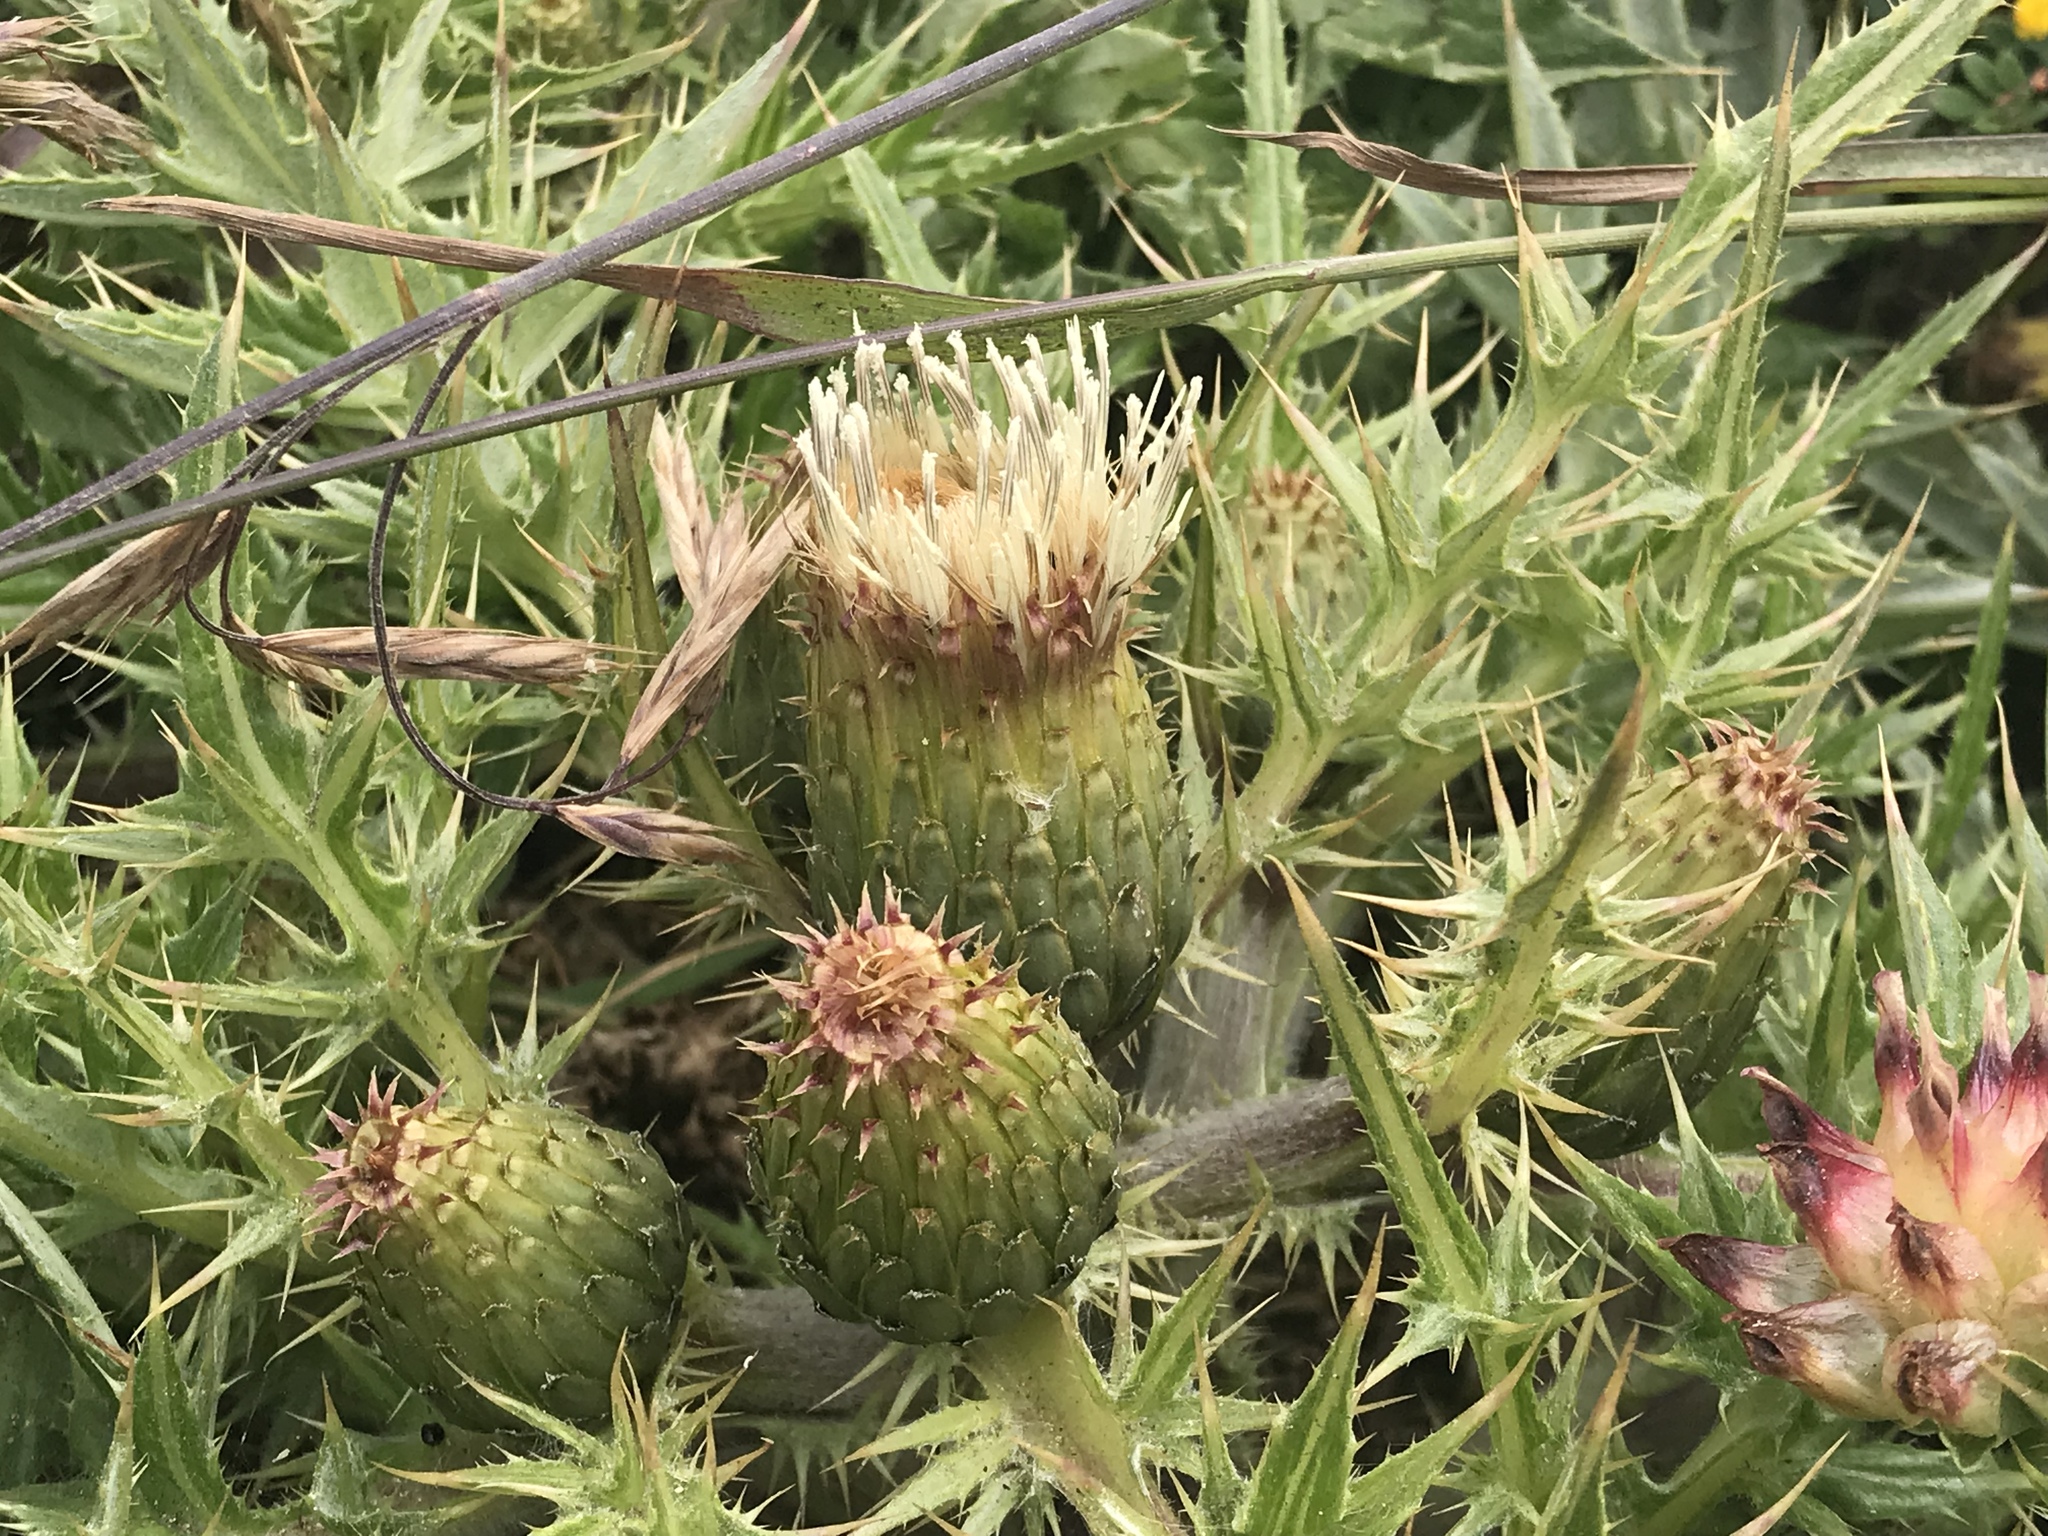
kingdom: Plantae
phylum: Tracheophyta
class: Magnoliopsida
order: Asterales
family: Asteraceae
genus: Cirsium
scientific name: Cirsium quercetorum
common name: Alameda county thistle
